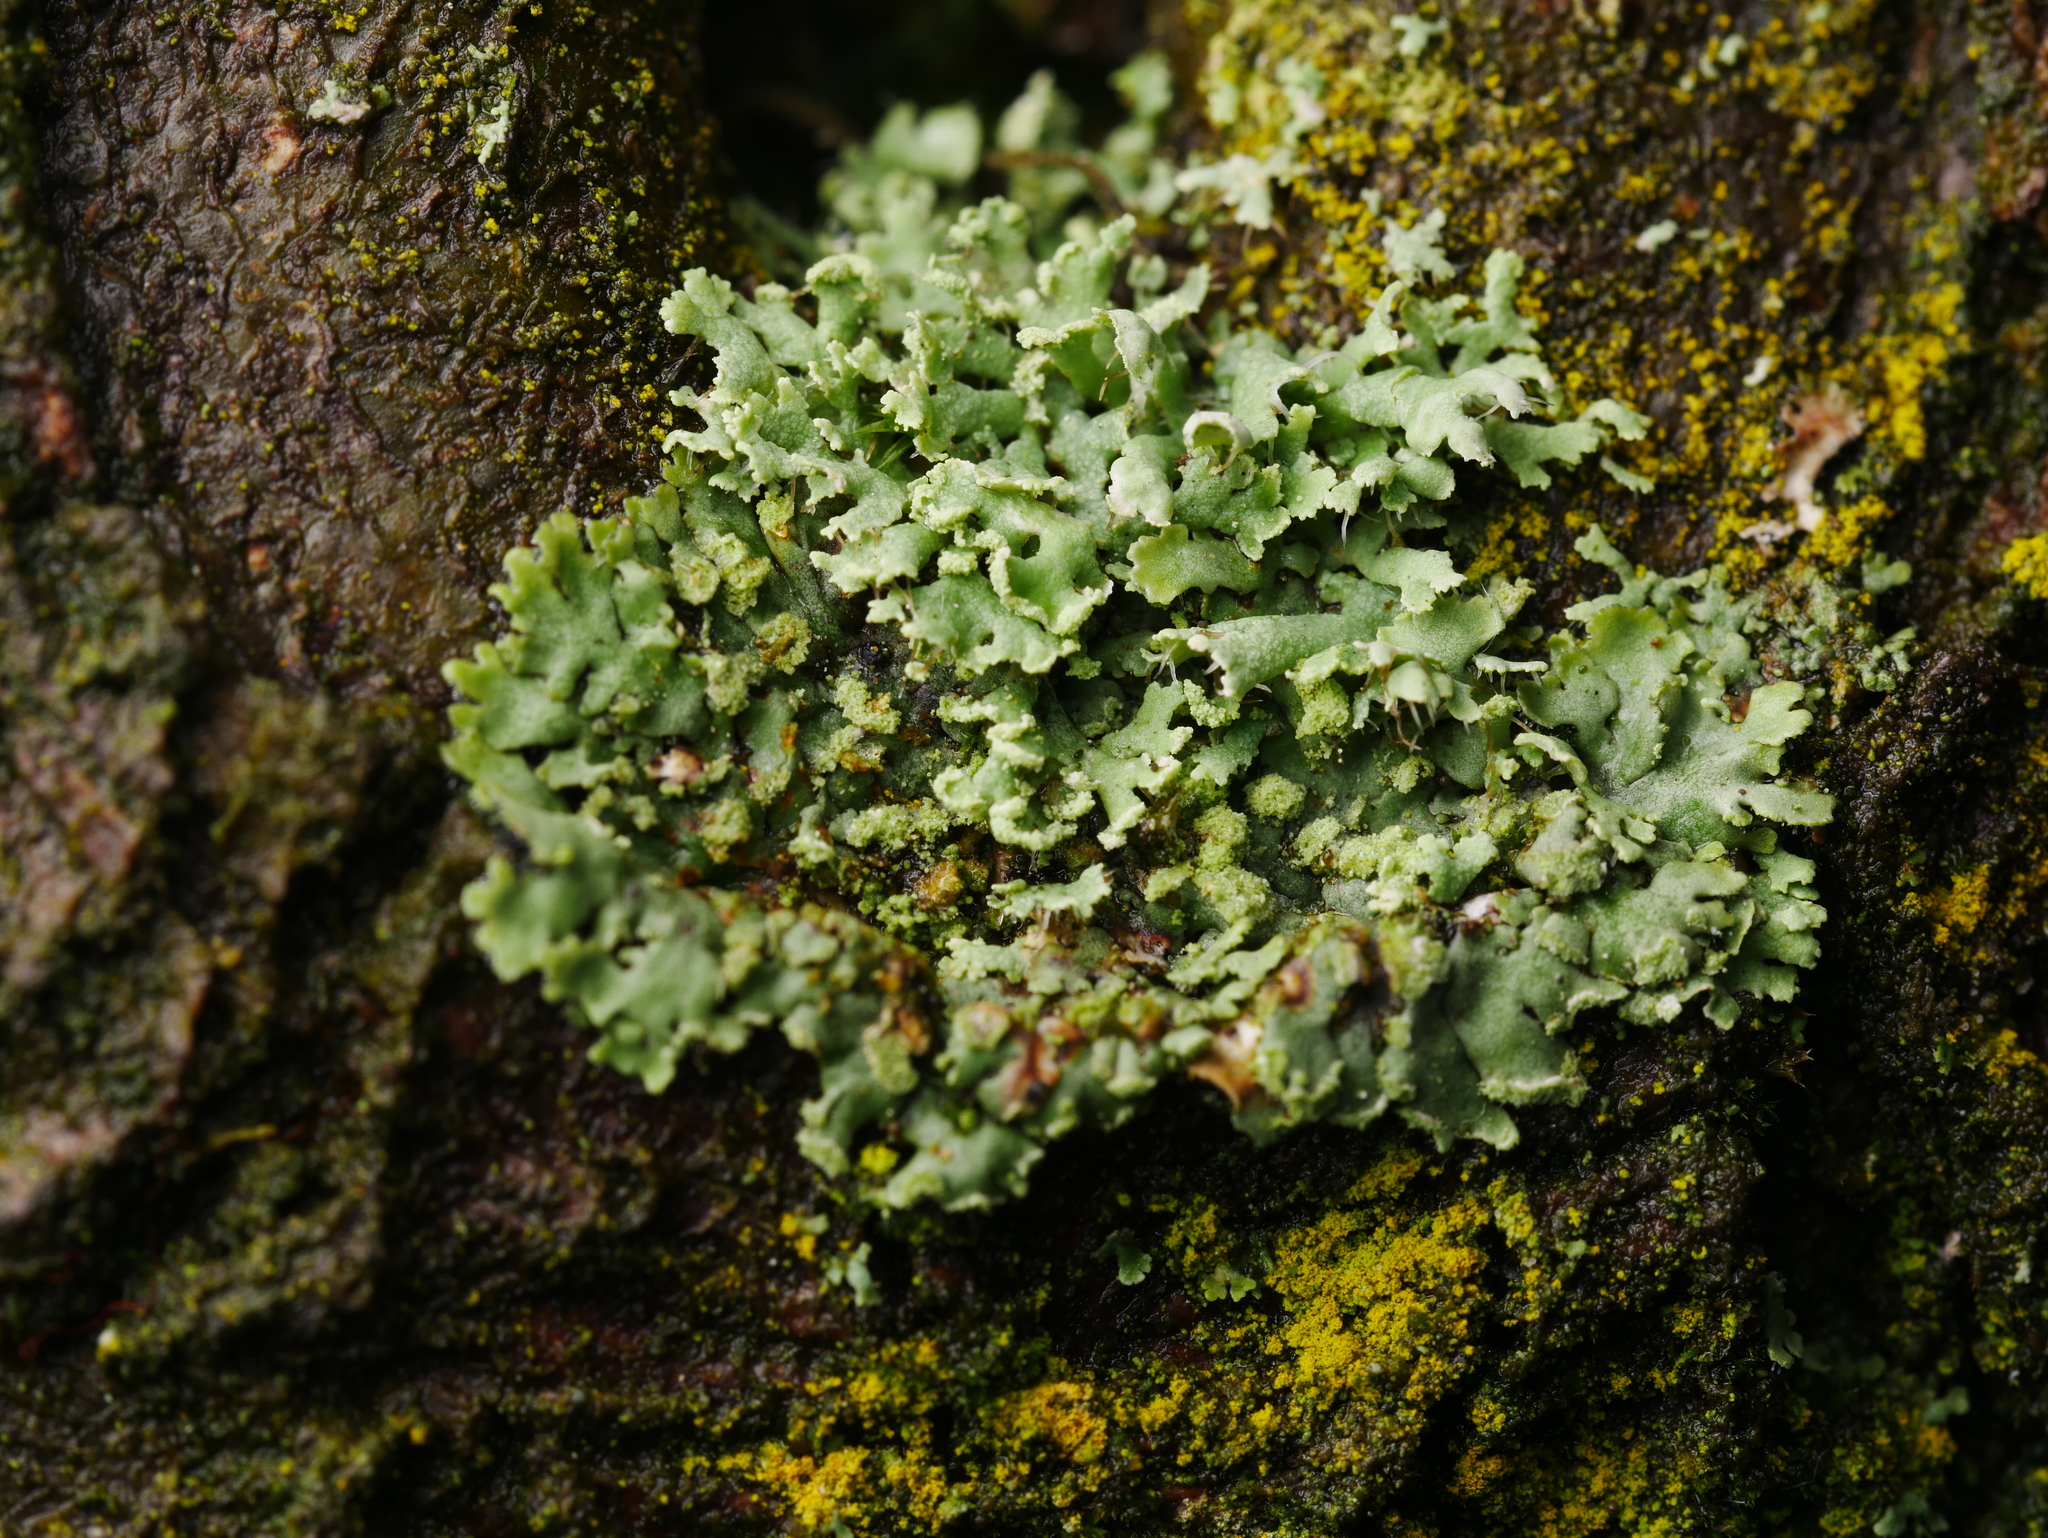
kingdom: Fungi
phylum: Ascomycota
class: Lecanoromycetes
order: Caliciales
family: Physciaceae
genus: Physcia
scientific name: Physcia tenella
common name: Fringed rosette lichen
